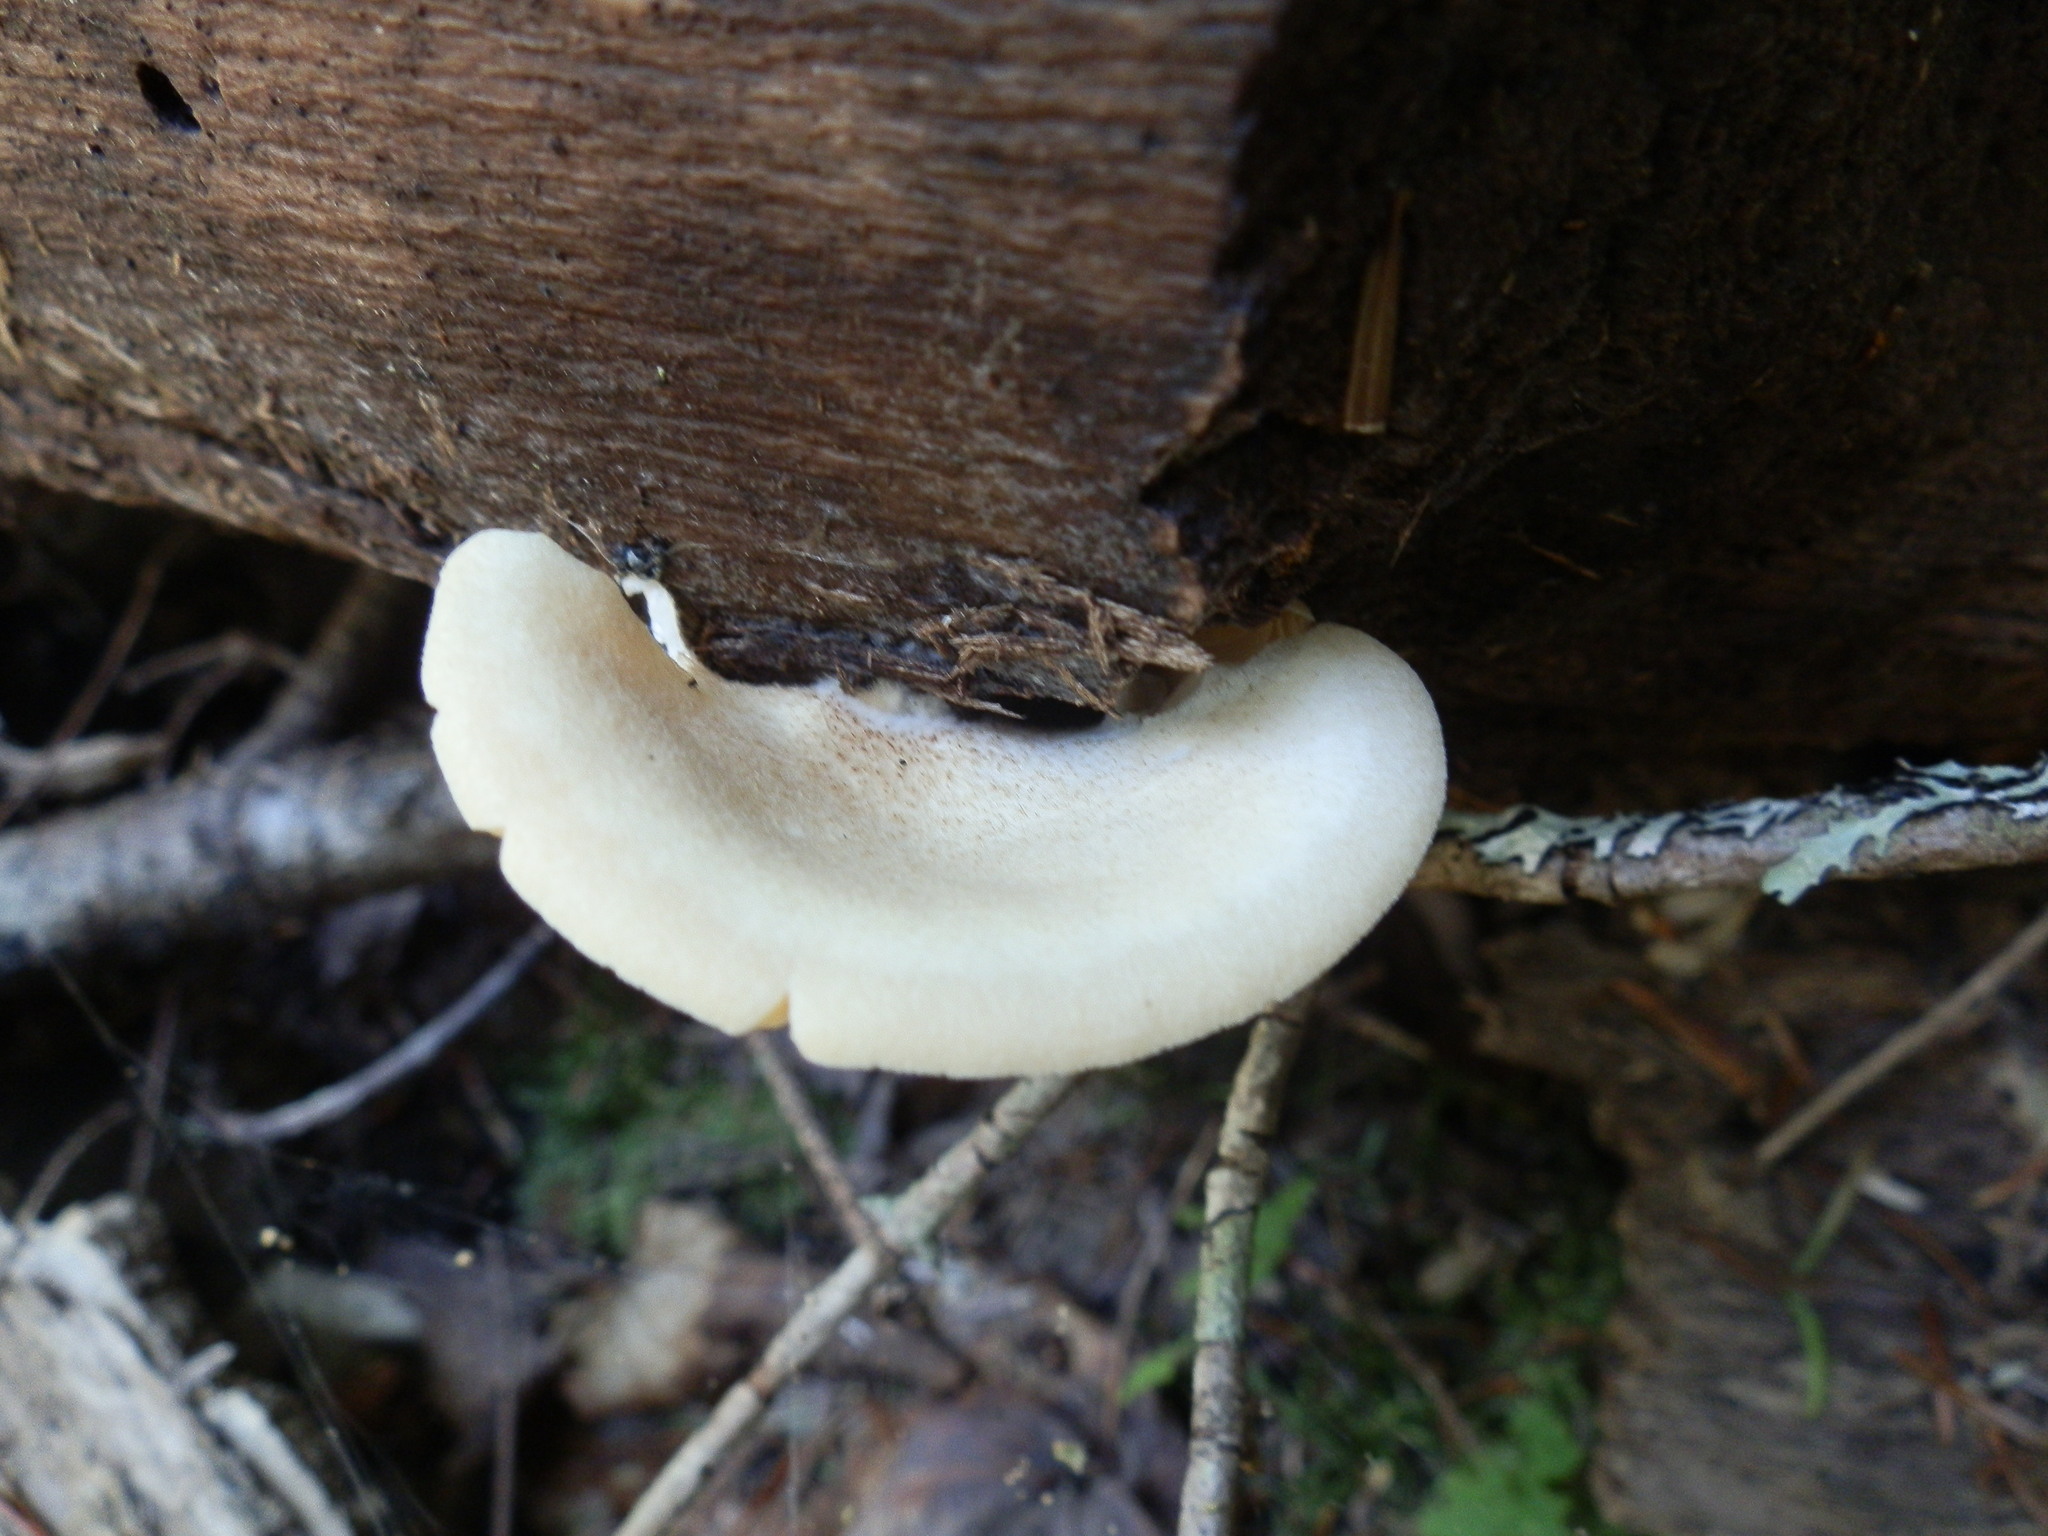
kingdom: Fungi
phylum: Basidiomycota
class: Agaricomycetes
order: Agaricales
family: Crepidotaceae
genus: Crepidotus
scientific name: Crepidotus crocophyllus
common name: Saffron oysterling
